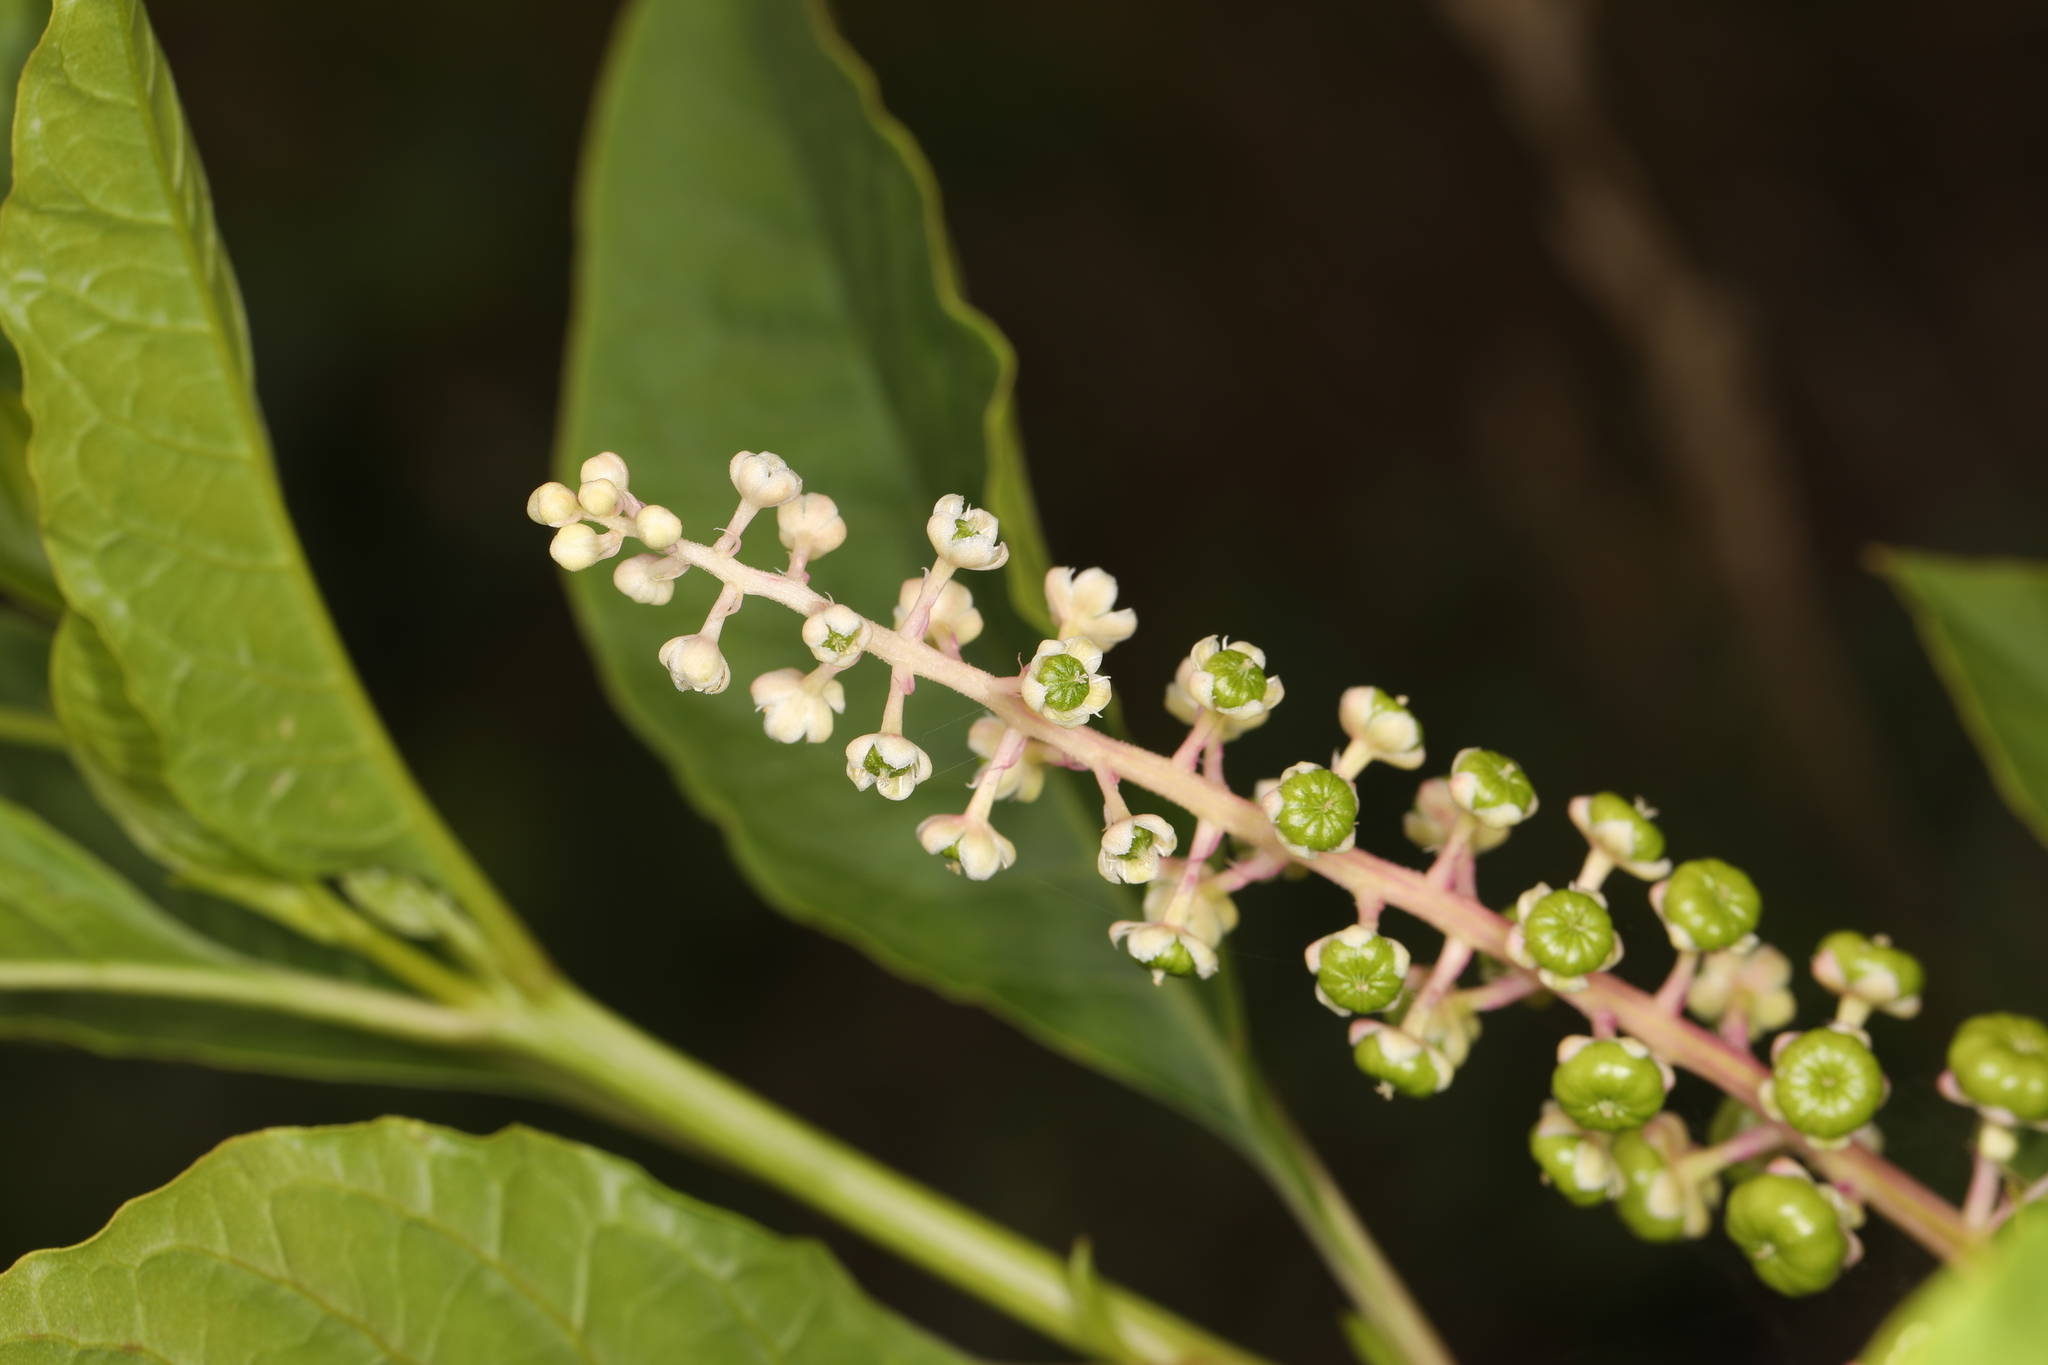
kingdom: Plantae
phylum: Tracheophyta
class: Magnoliopsida
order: Caryophyllales
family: Phytolaccaceae
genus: Phytolacca
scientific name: Phytolacca americana
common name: American pokeweed
